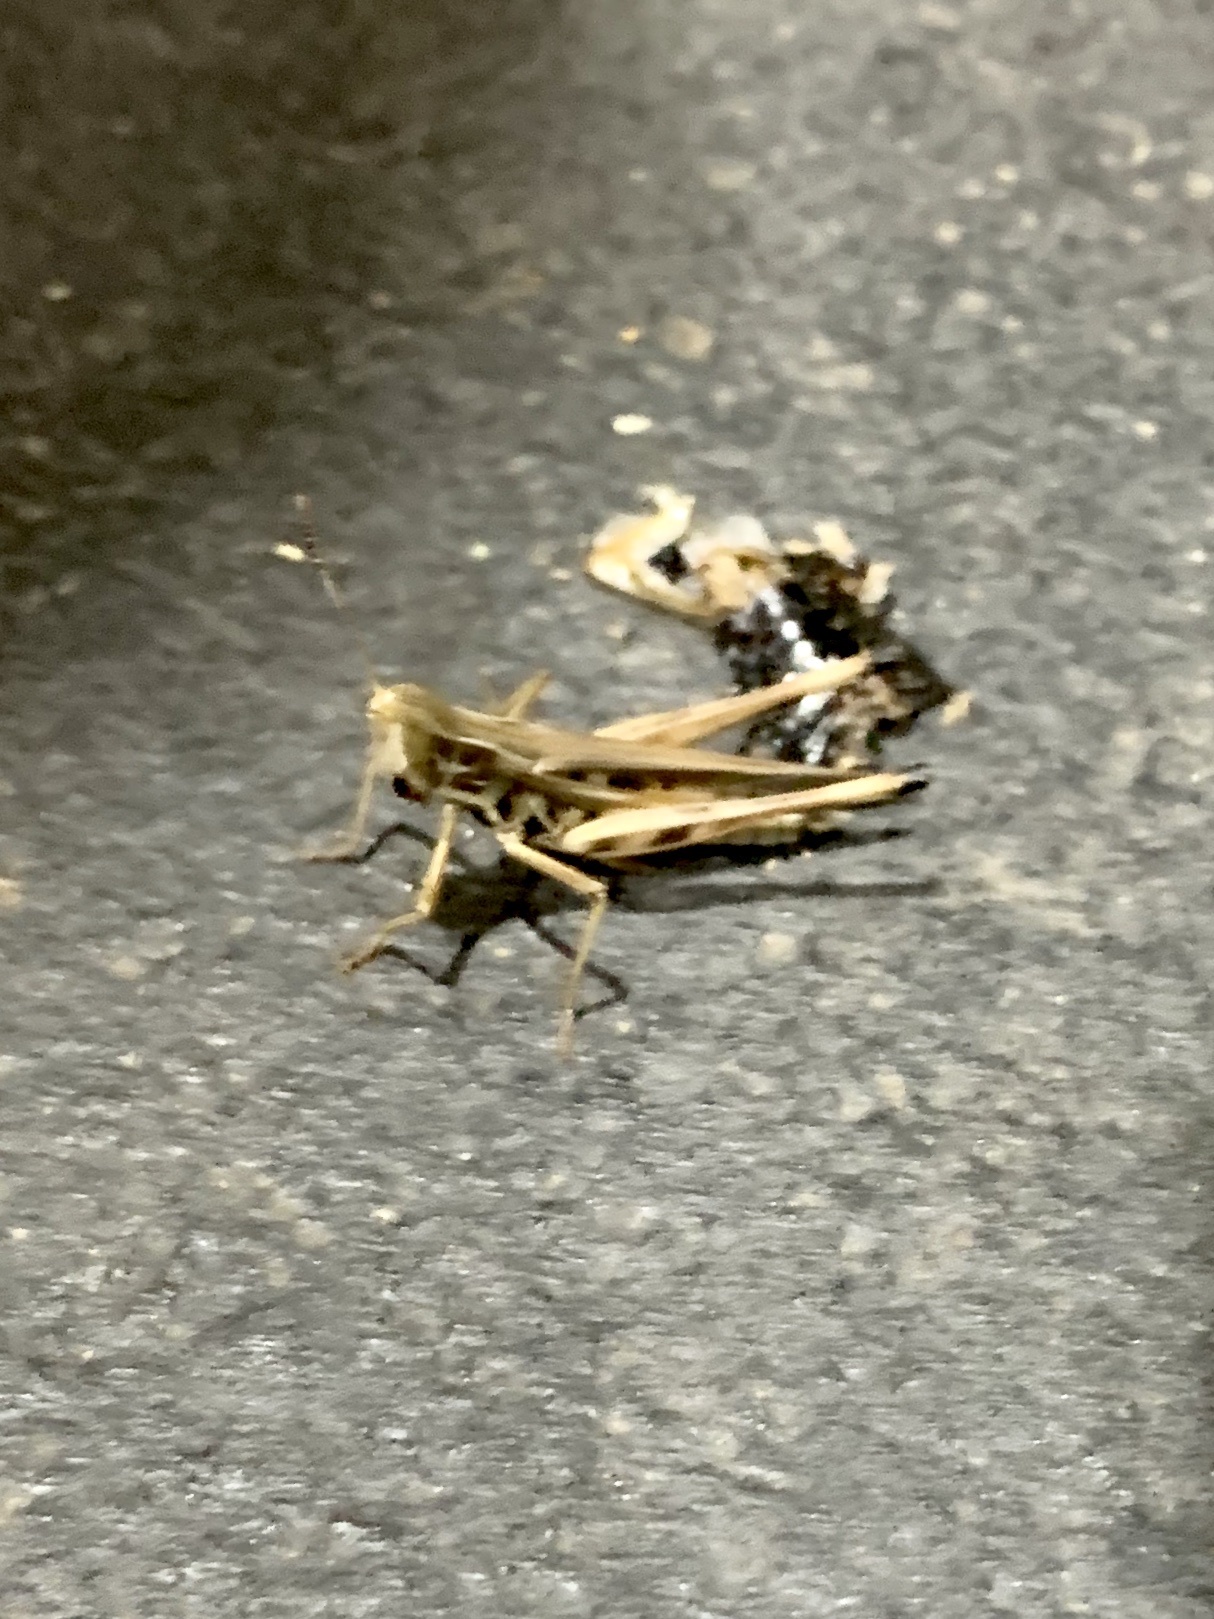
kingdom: Animalia
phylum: Arthropoda
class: Insecta
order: Orthoptera
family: Acrididae
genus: Syrbula
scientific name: Syrbula admirabilis
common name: Handsome grasshopper
